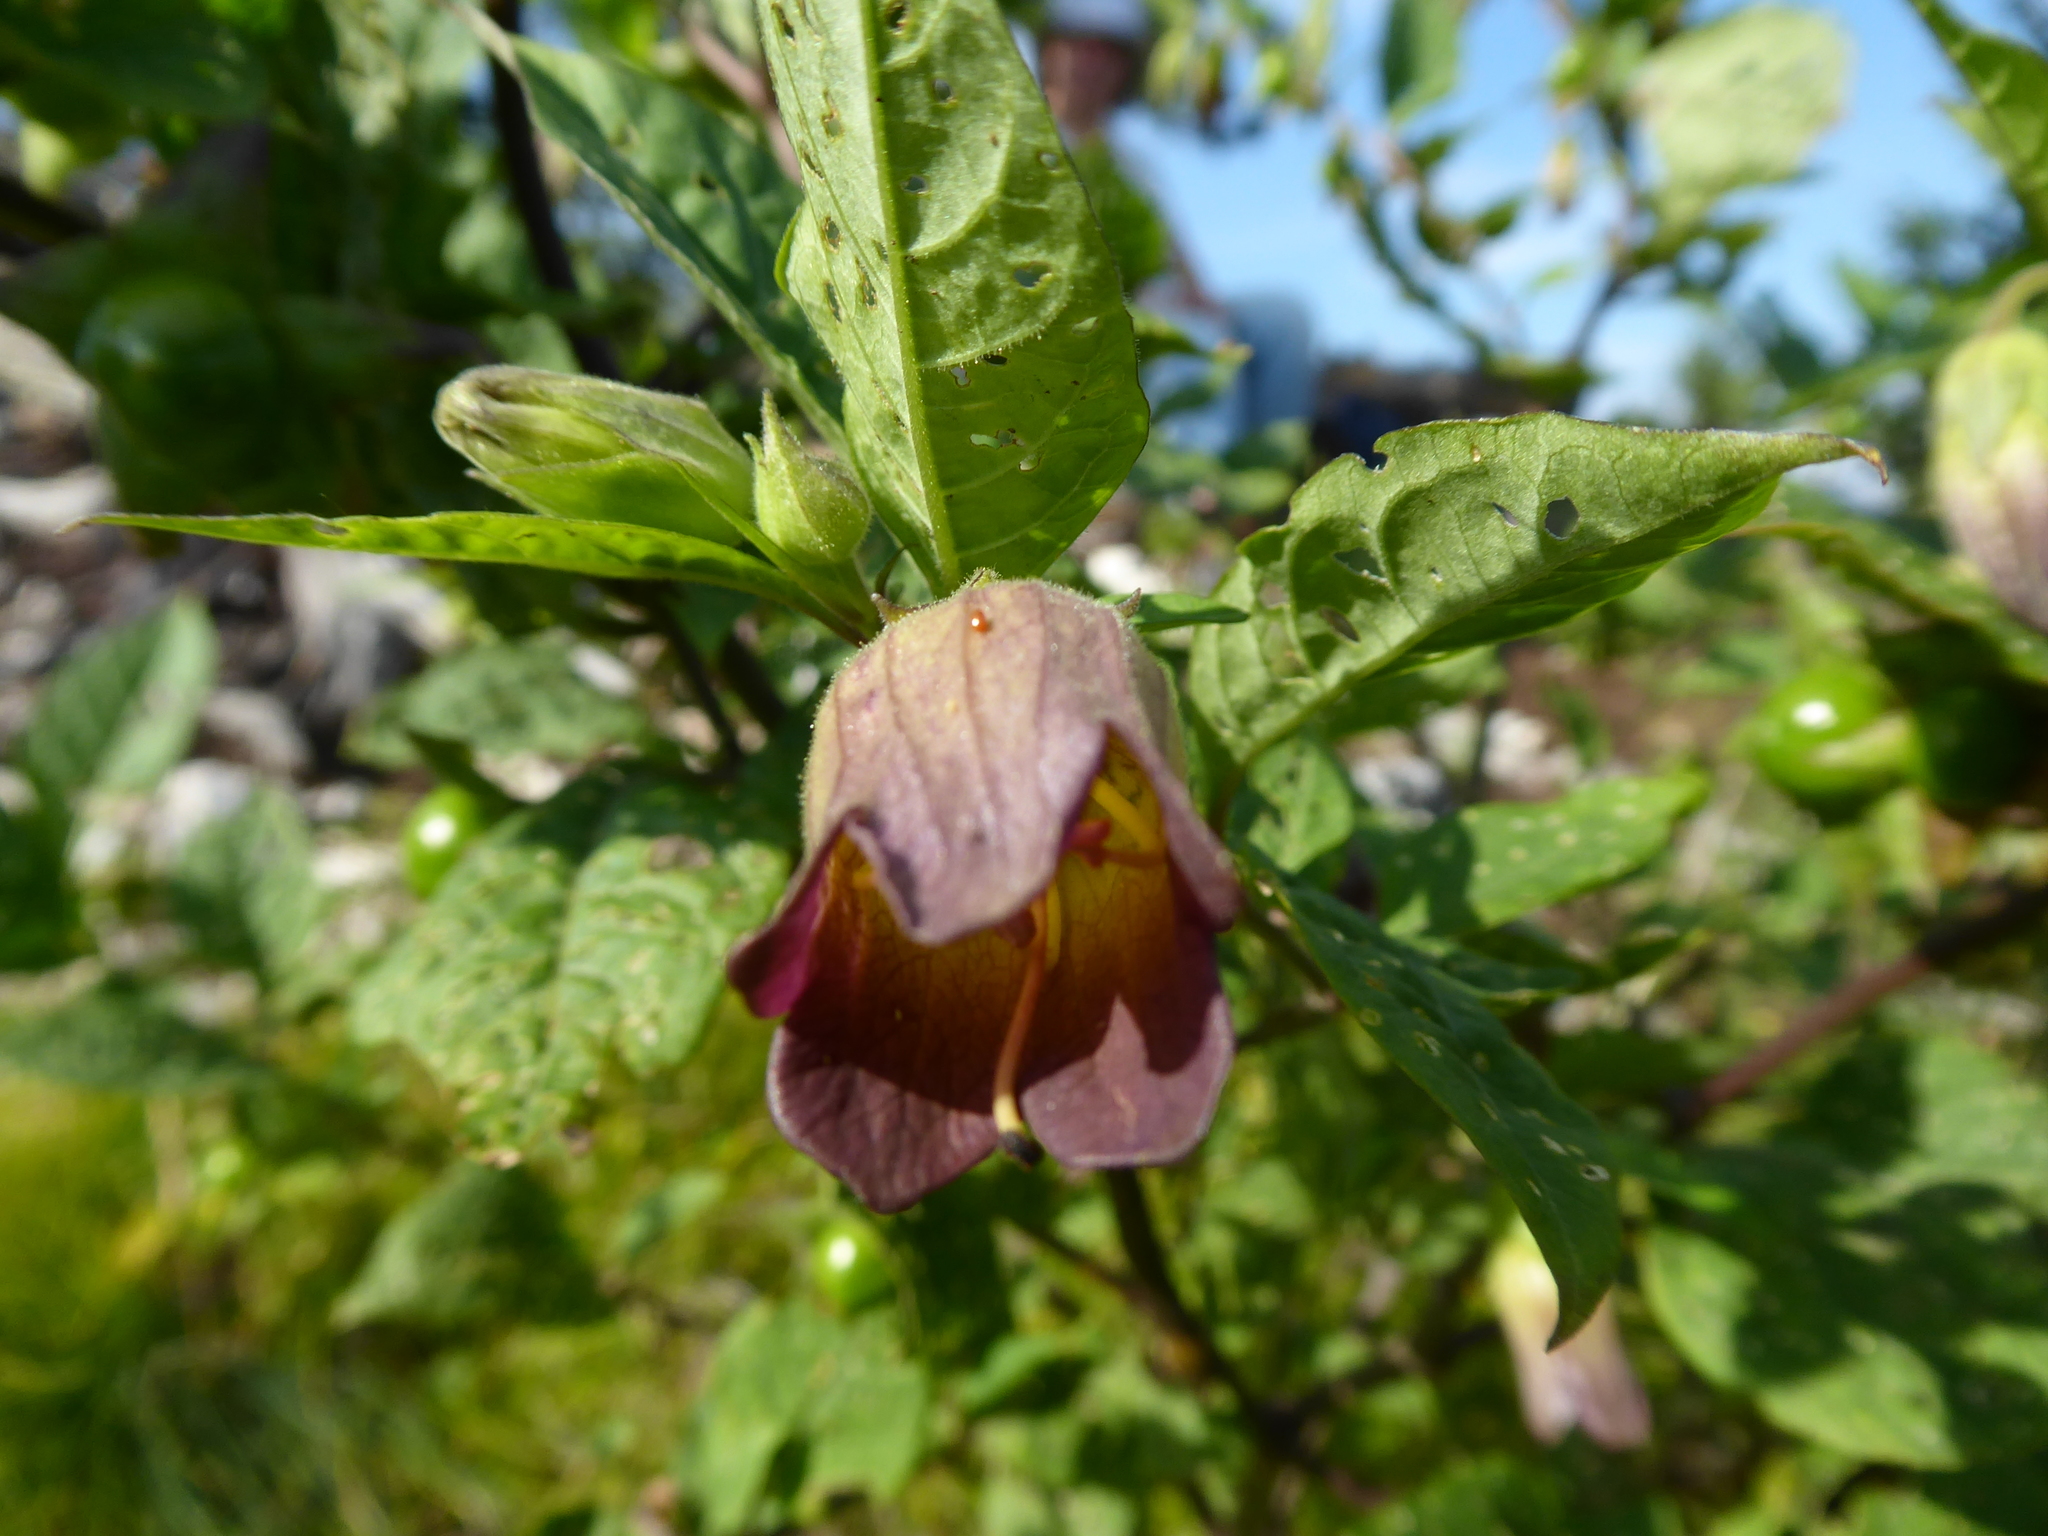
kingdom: Plantae
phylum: Tracheophyta
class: Magnoliopsida
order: Solanales
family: Solanaceae
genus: Atropa
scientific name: Atropa belladonna
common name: Deadly nightshade
